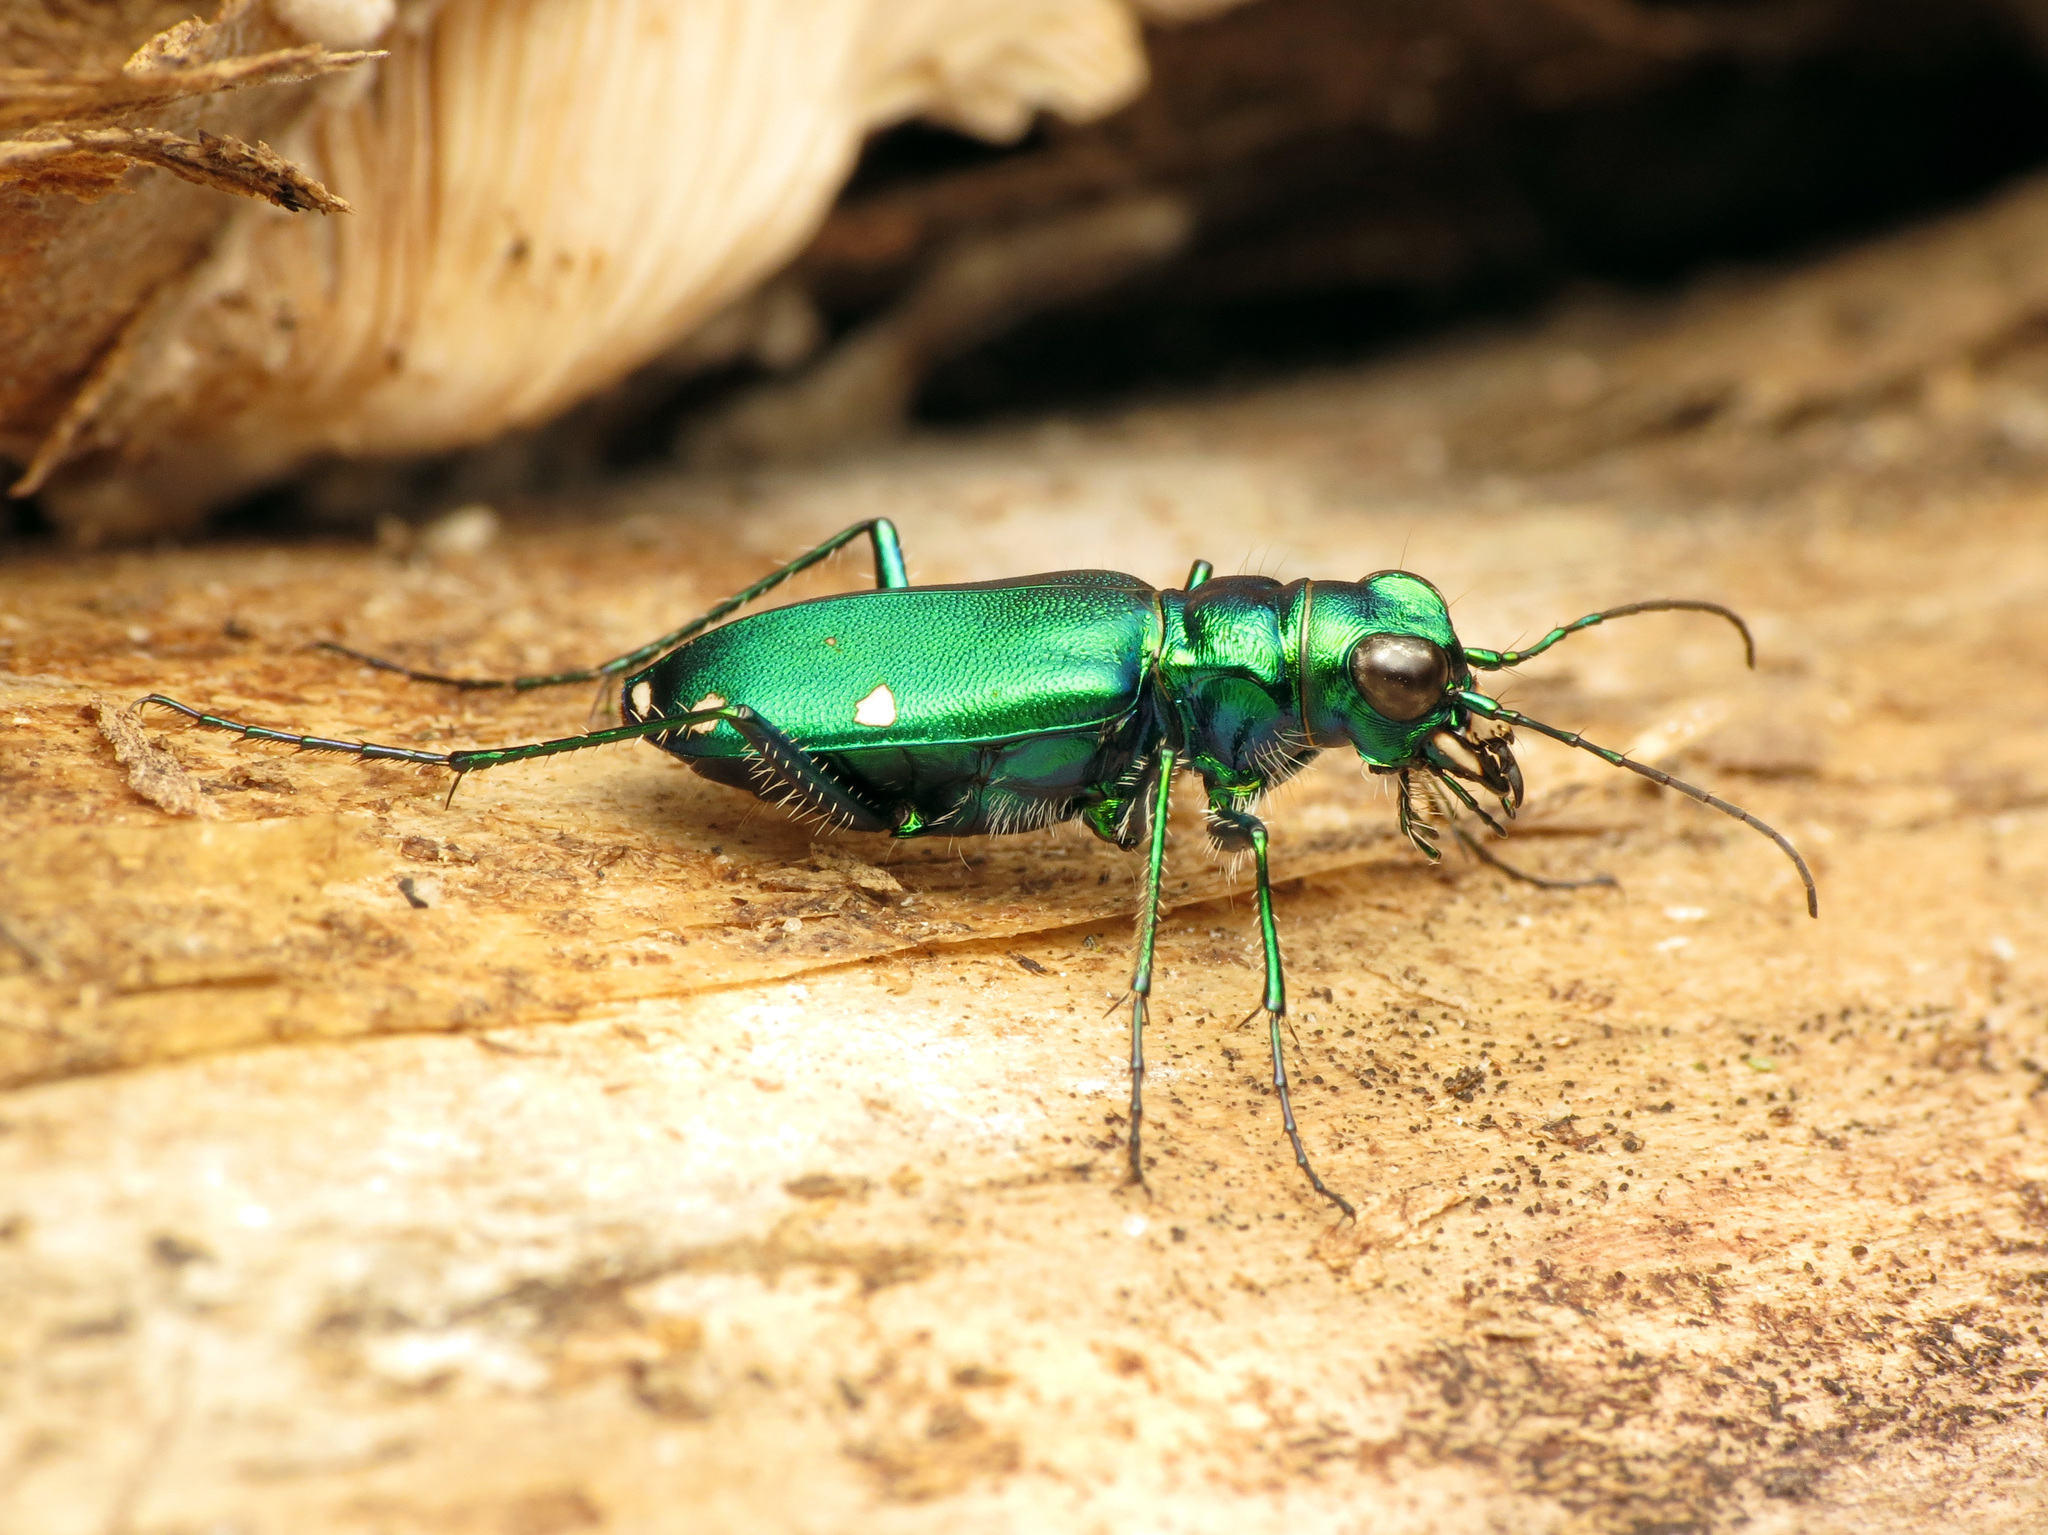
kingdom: Animalia
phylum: Arthropoda
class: Insecta
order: Coleoptera
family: Carabidae
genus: Cicindela
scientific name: Cicindela sexguttata
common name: Six-spotted tiger beetle
